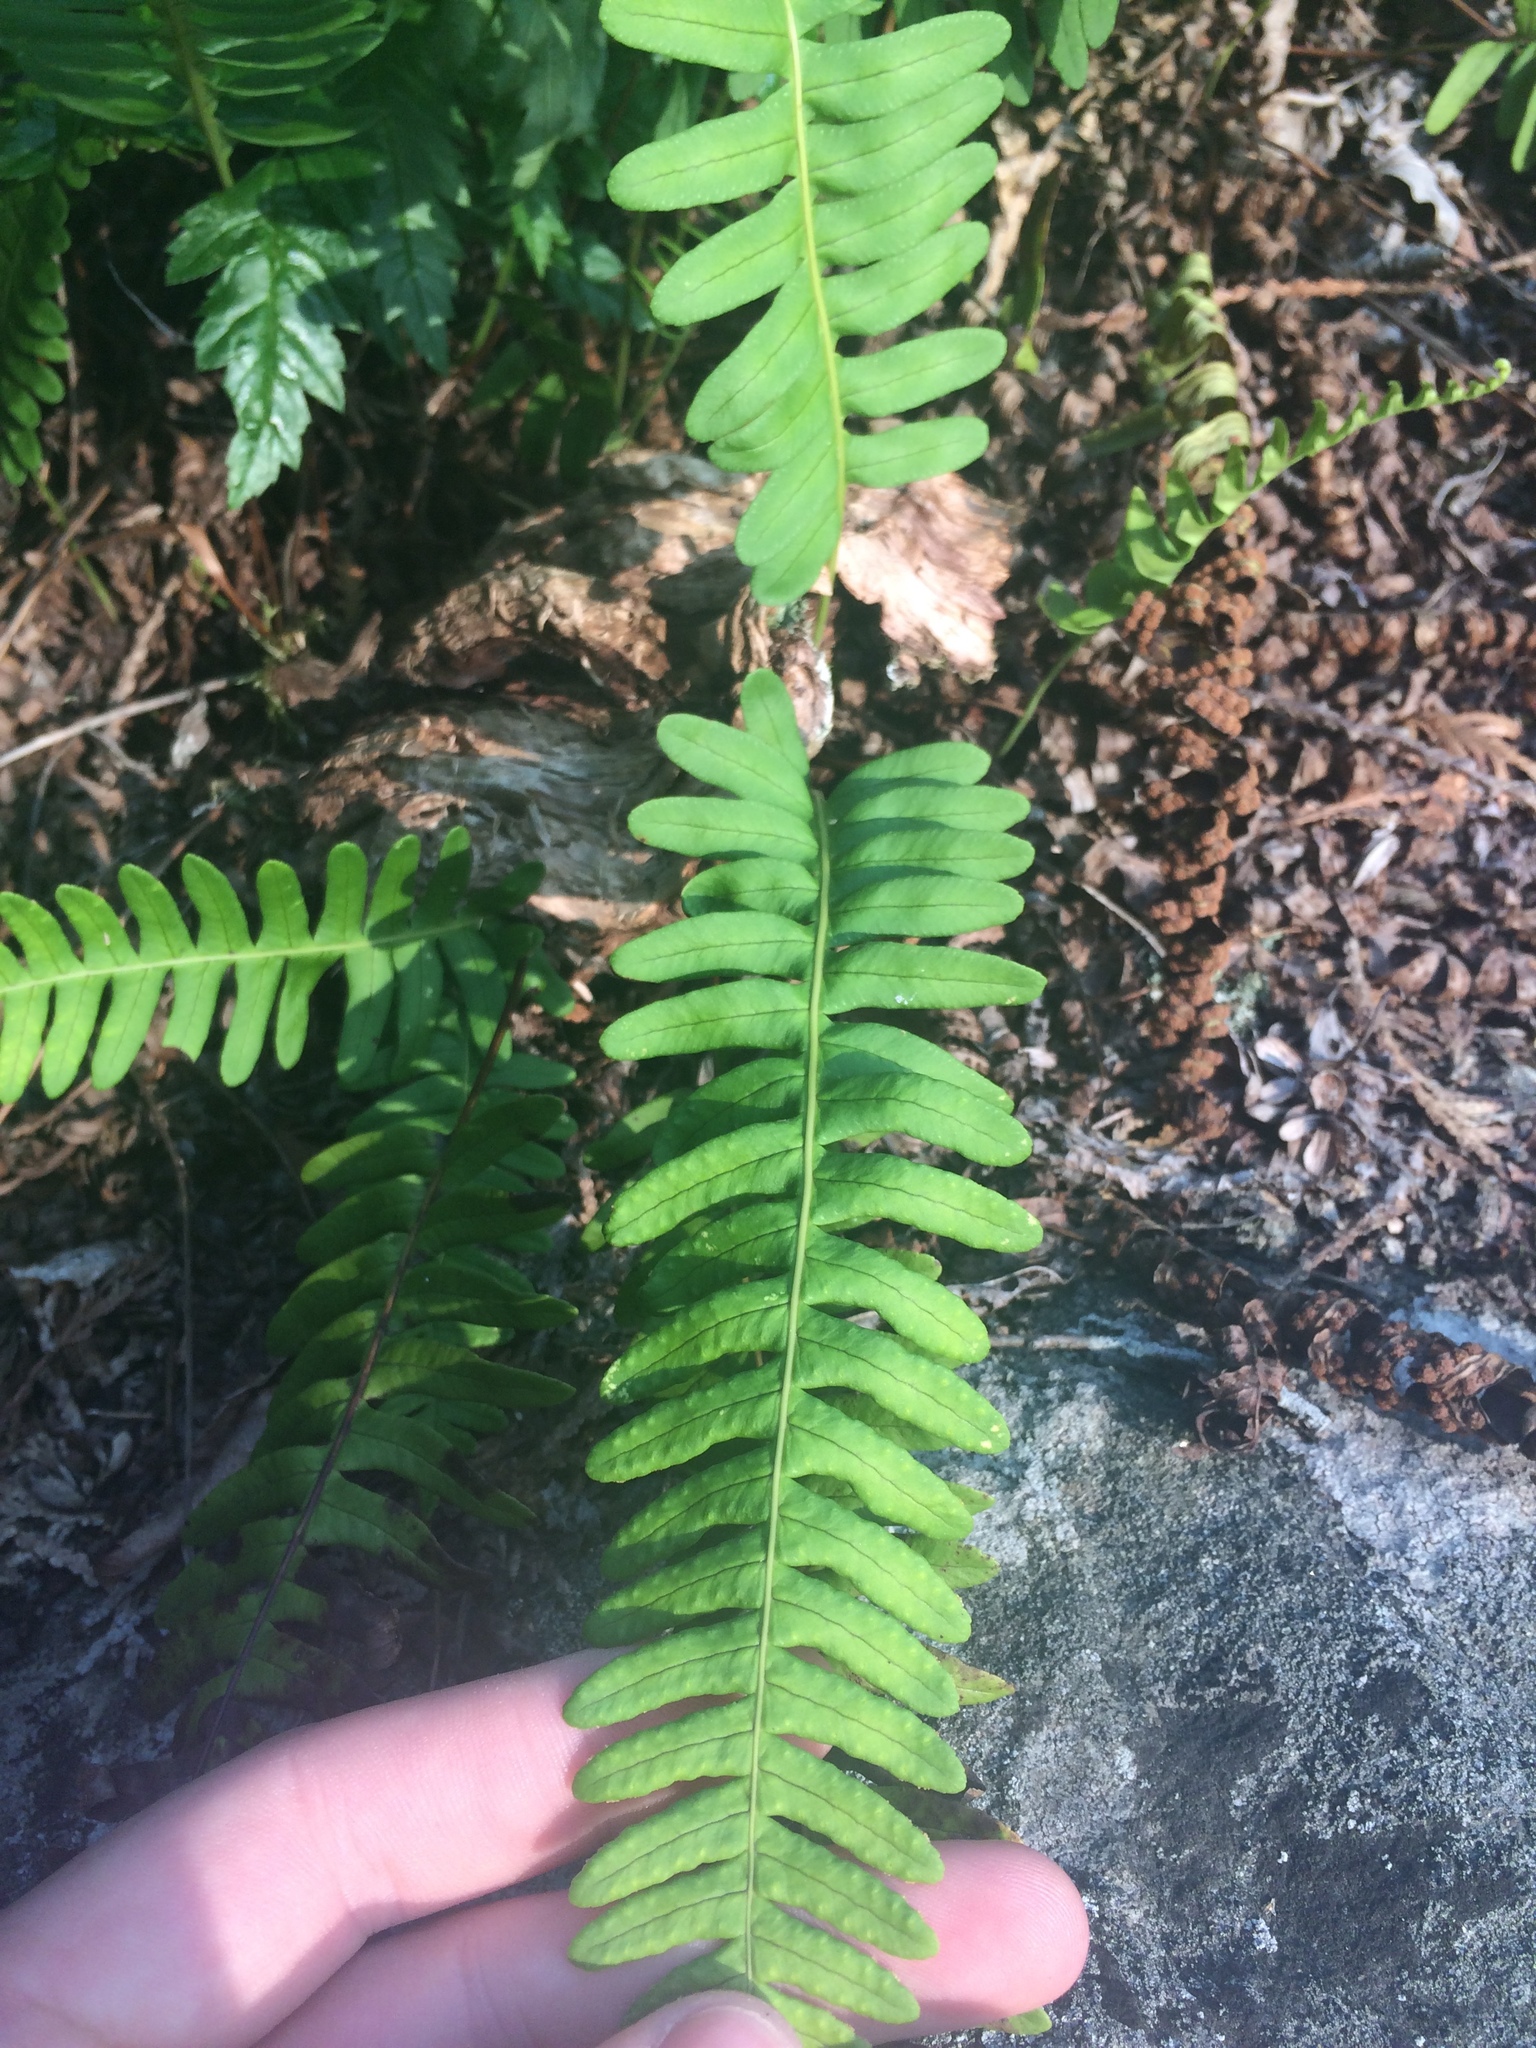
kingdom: Plantae
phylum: Tracheophyta
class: Polypodiopsida
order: Polypodiales
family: Polypodiaceae
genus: Polypodium
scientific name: Polypodium virginianum
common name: American wall fern
